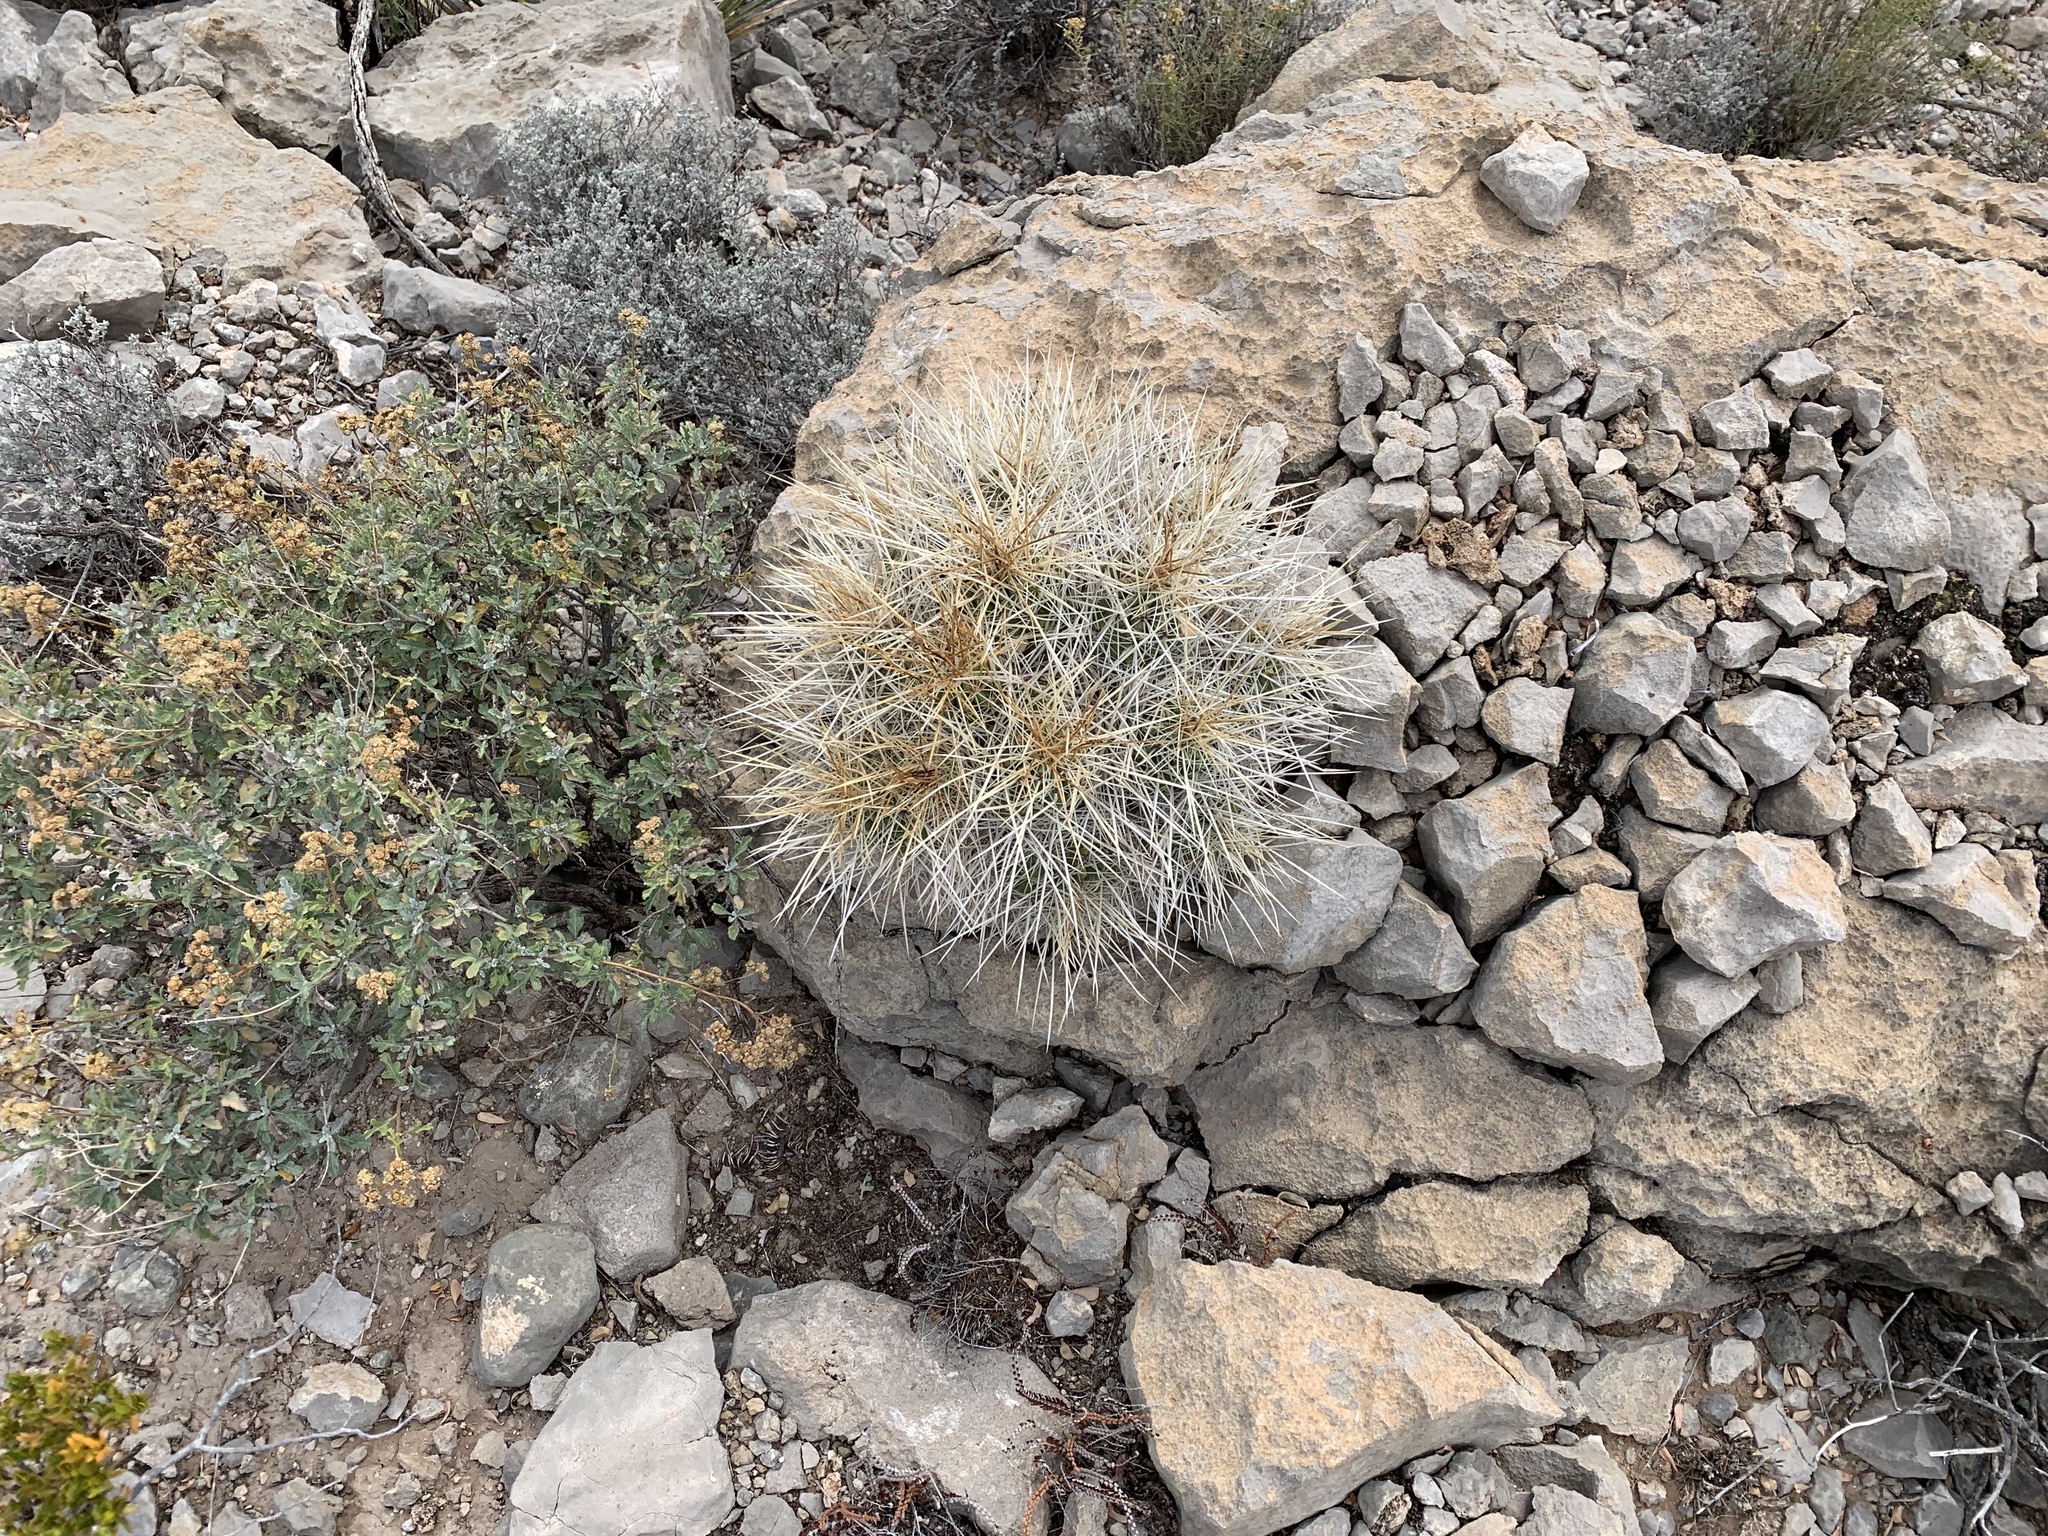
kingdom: Plantae
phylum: Tracheophyta
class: Magnoliopsida
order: Caryophyllales
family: Cactaceae
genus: Echinocereus
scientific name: Echinocereus stramineus
